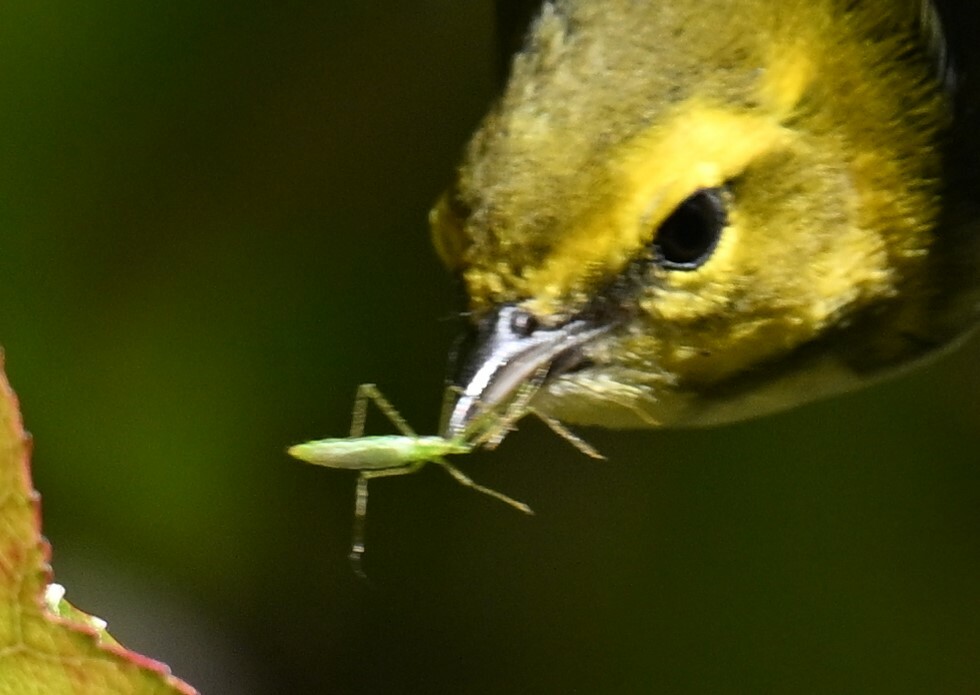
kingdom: Animalia
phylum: Arthropoda
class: Insecta
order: Hemiptera
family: Reduviidae
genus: Zelus
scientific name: Zelus luridus
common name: Pale green assassin bug
